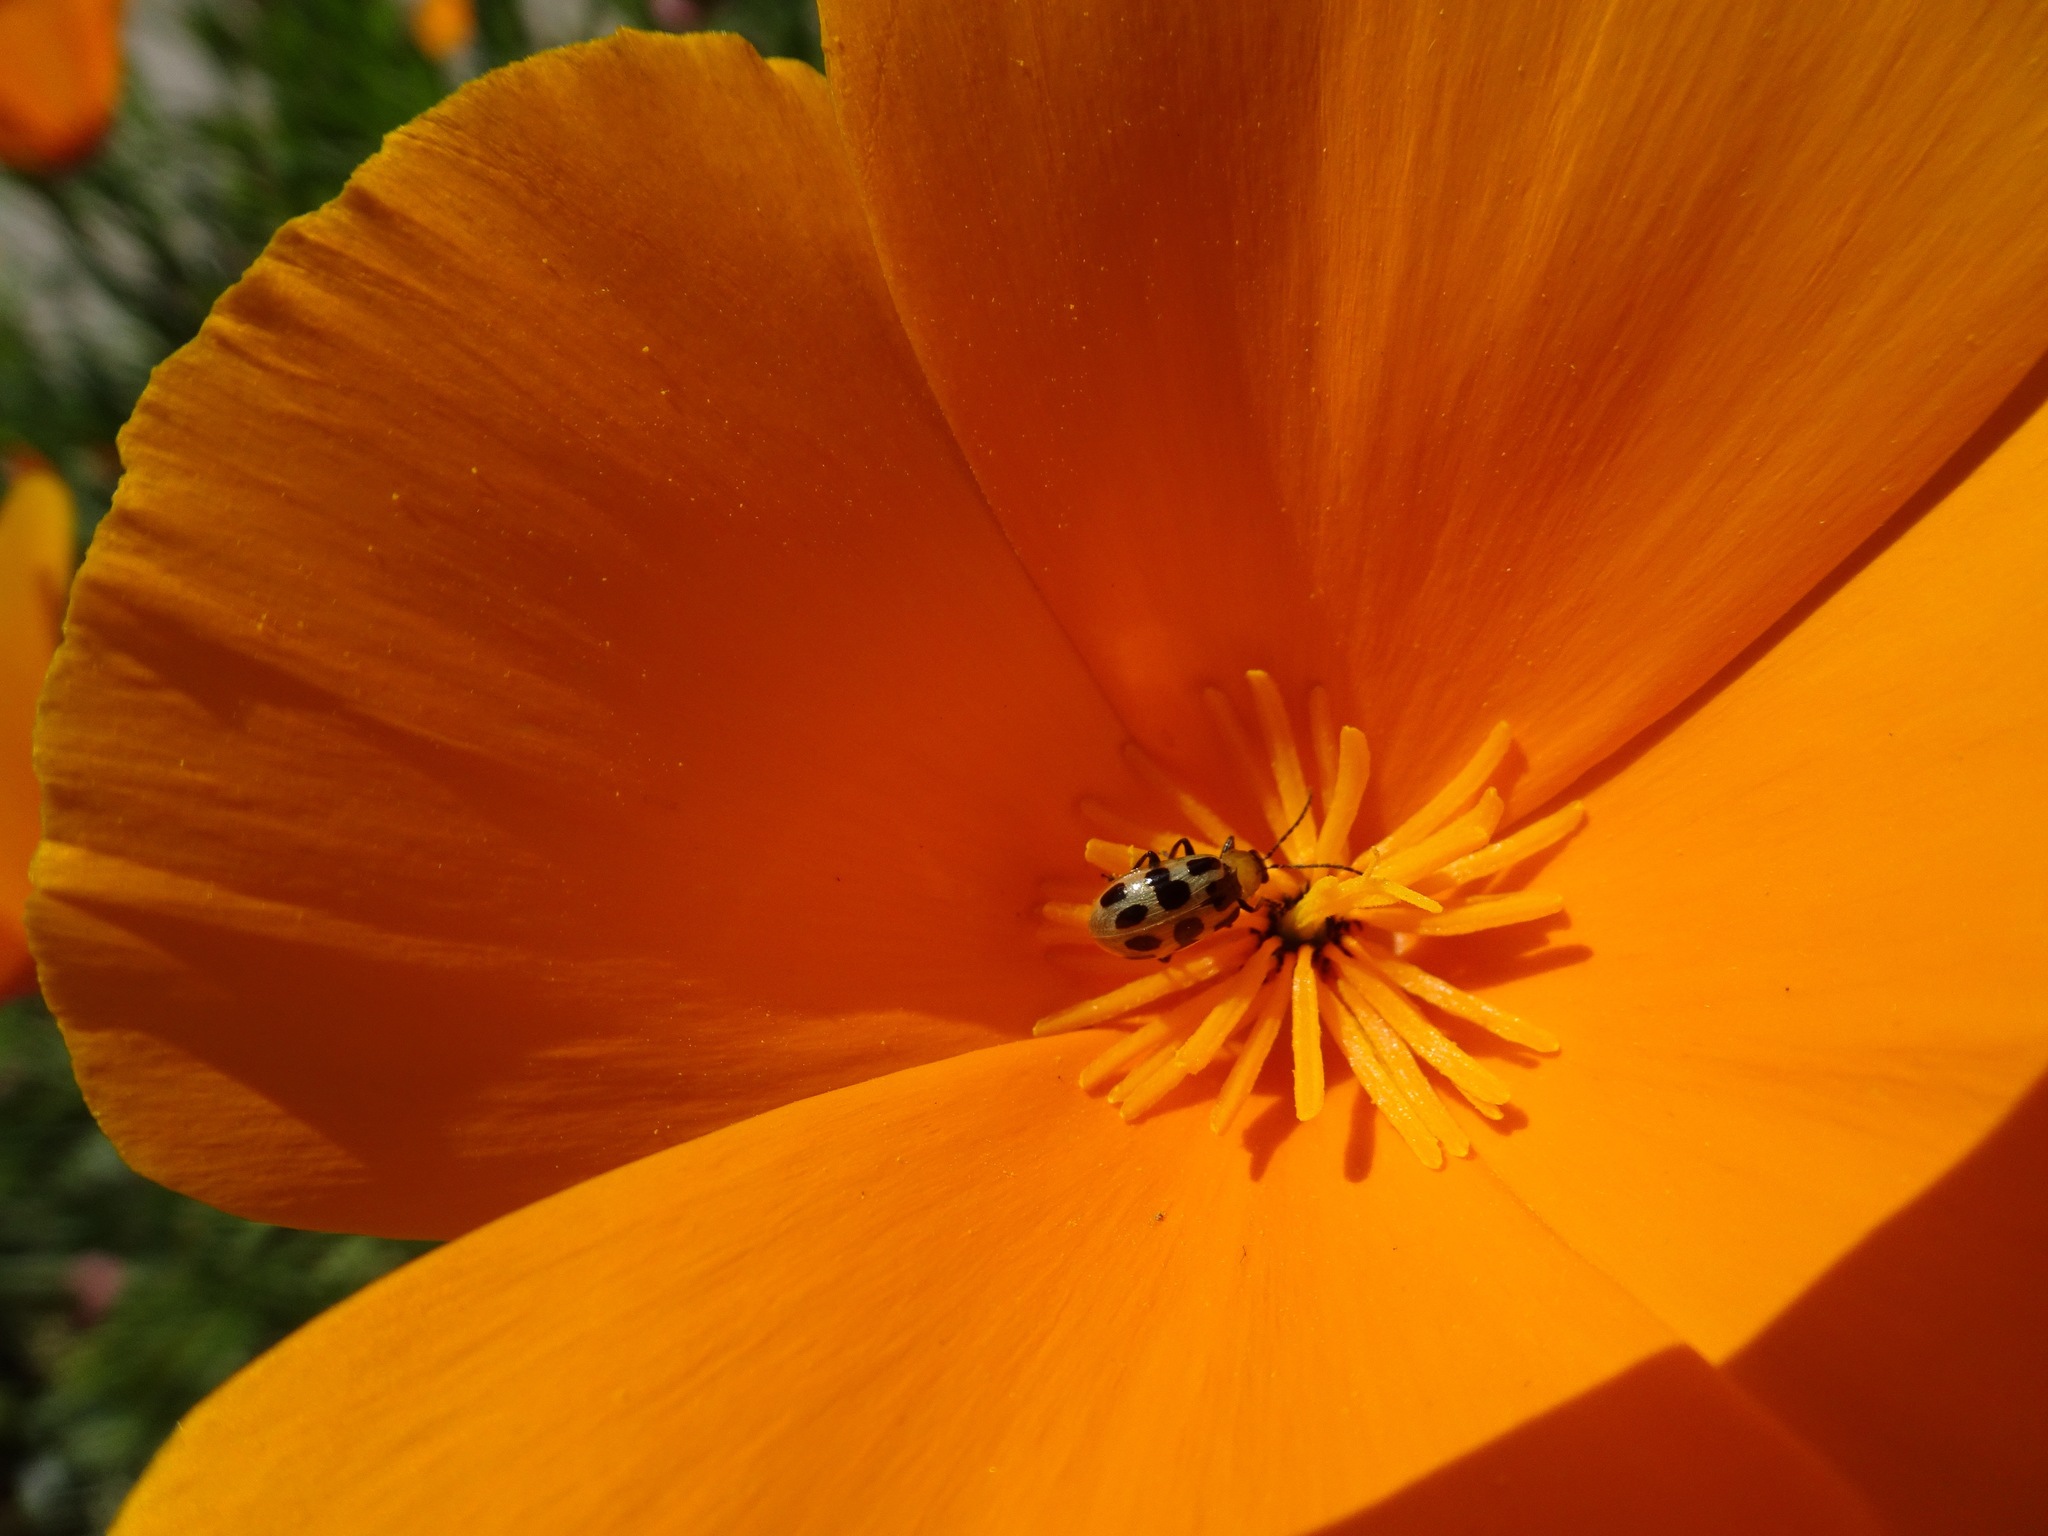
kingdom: Animalia
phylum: Arthropoda
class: Insecta
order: Coleoptera
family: Chrysomelidae
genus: Diabrotica
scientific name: Diabrotica undecimpunctata
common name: Spotted cucumber beetle
